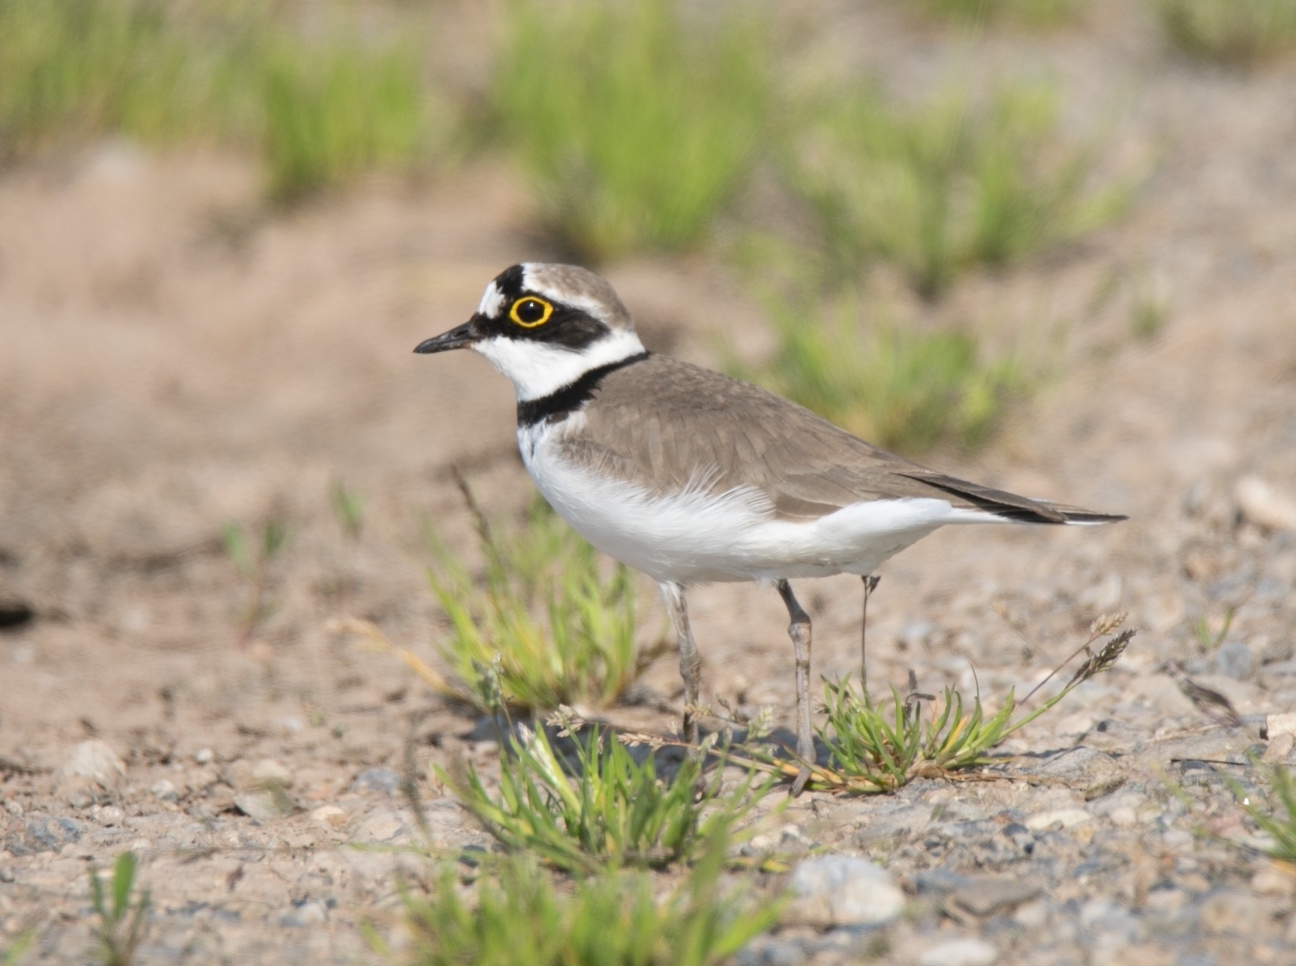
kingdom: Animalia
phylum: Chordata
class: Aves
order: Charadriiformes
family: Charadriidae
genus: Charadrius
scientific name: Charadrius dubius
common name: Little ringed plover
